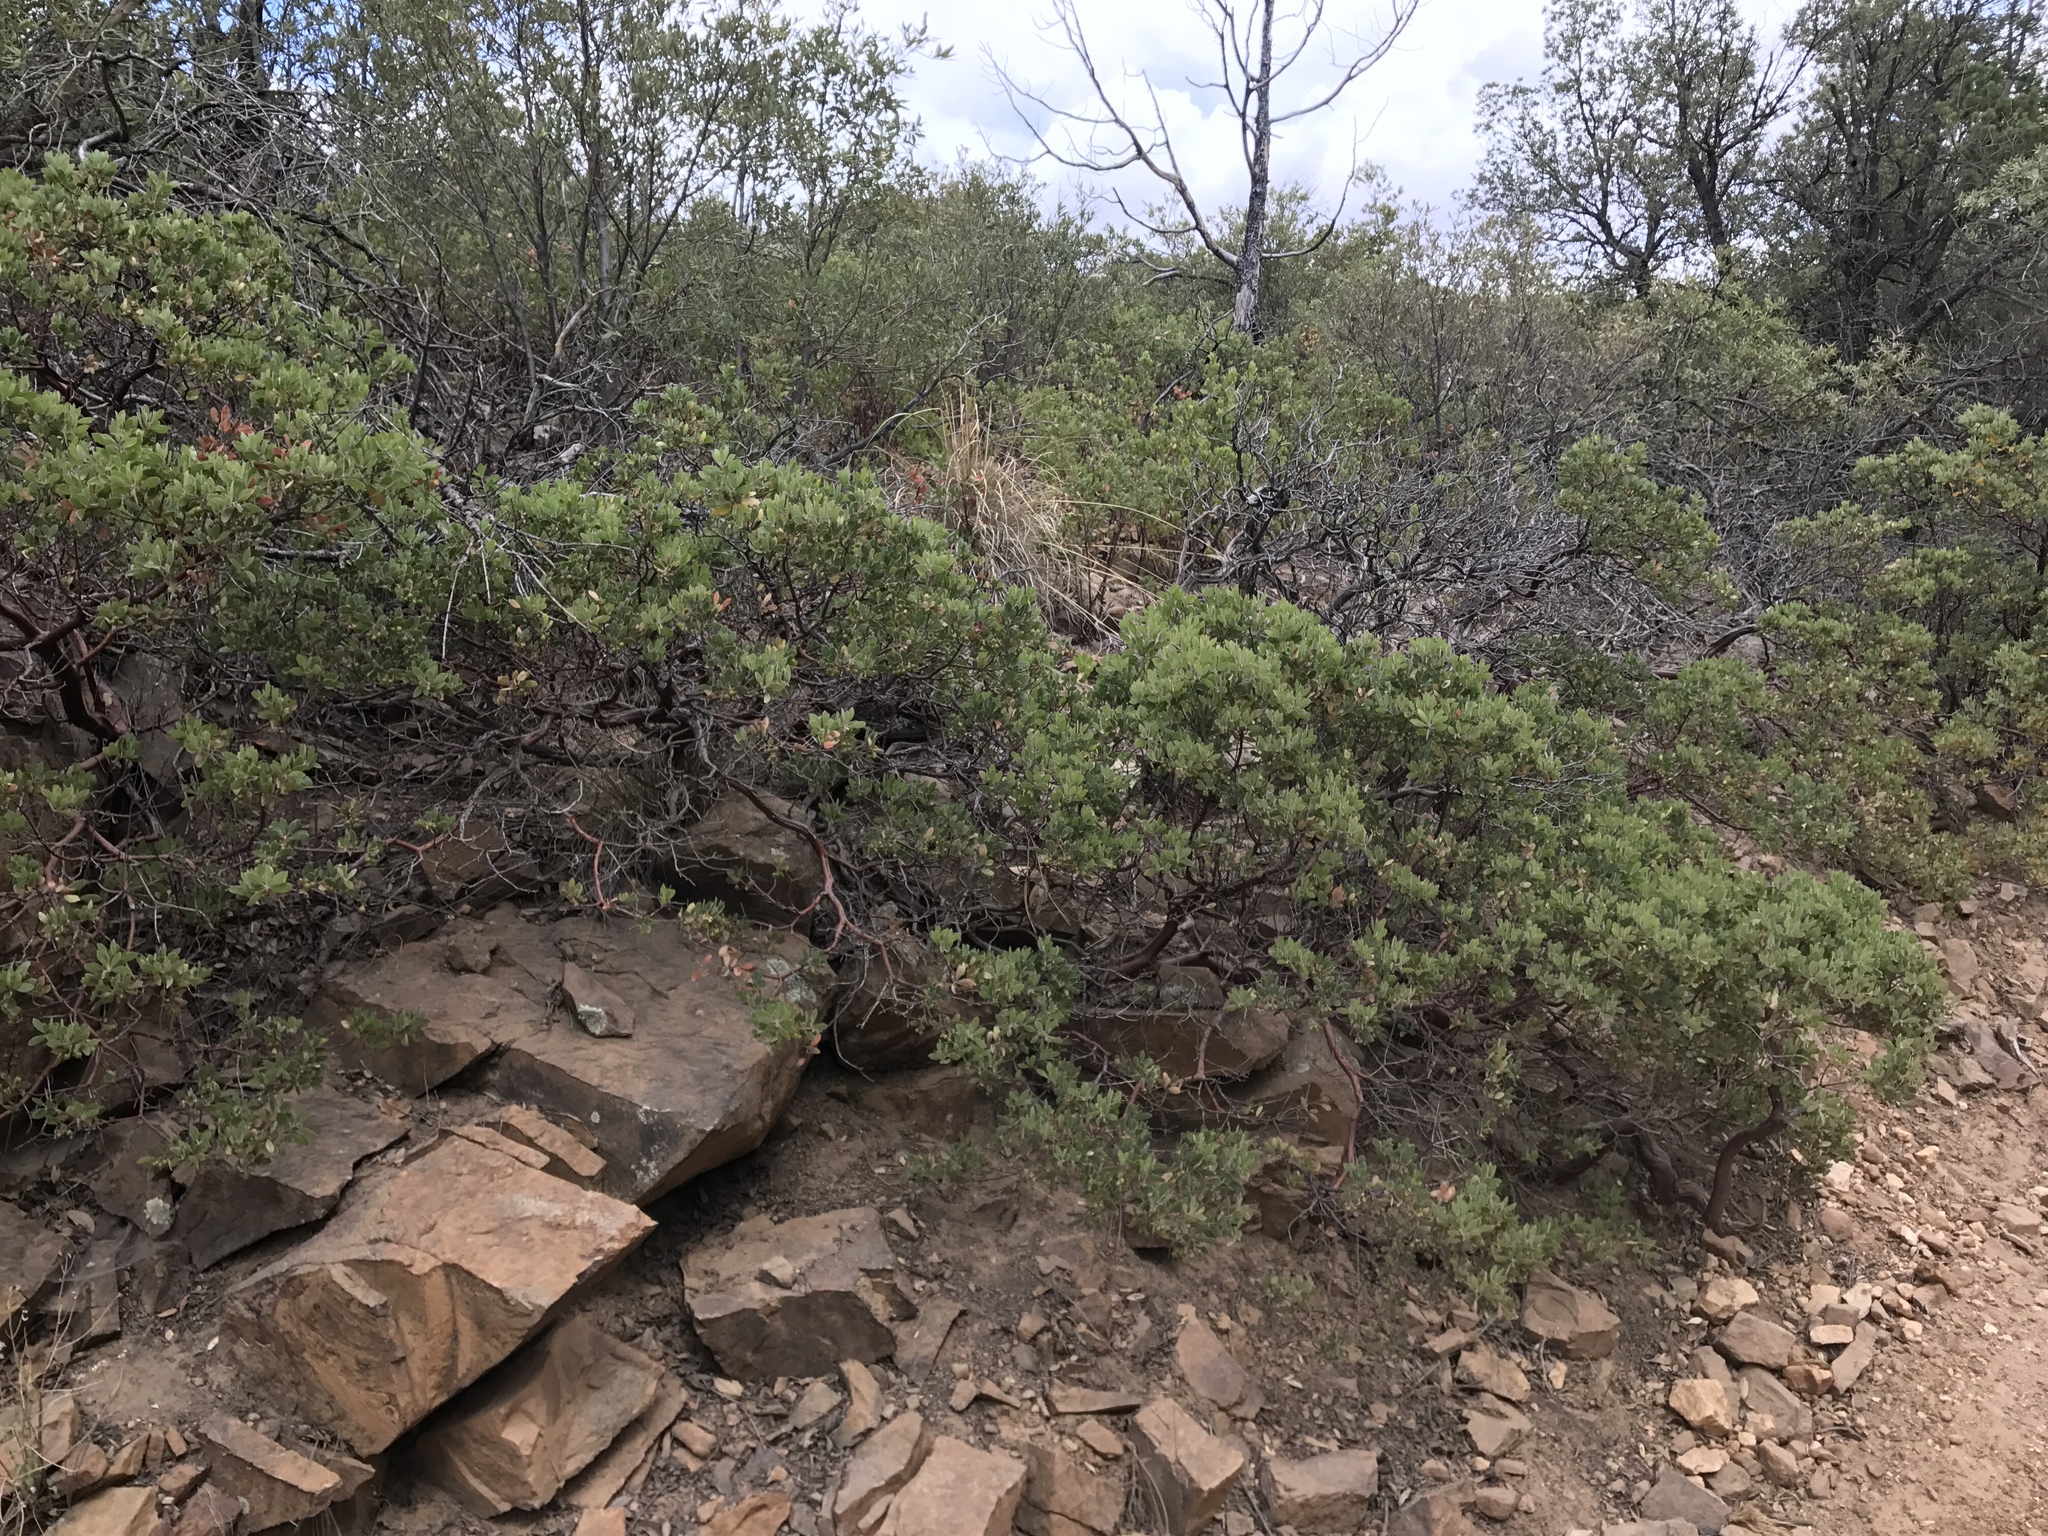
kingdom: Plantae
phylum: Tracheophyta
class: Magnoliopsida
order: Ericales
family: Ericaceae
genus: Arctostaphylos
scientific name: Arctostaphylos pungens
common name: Mexican manzanita
